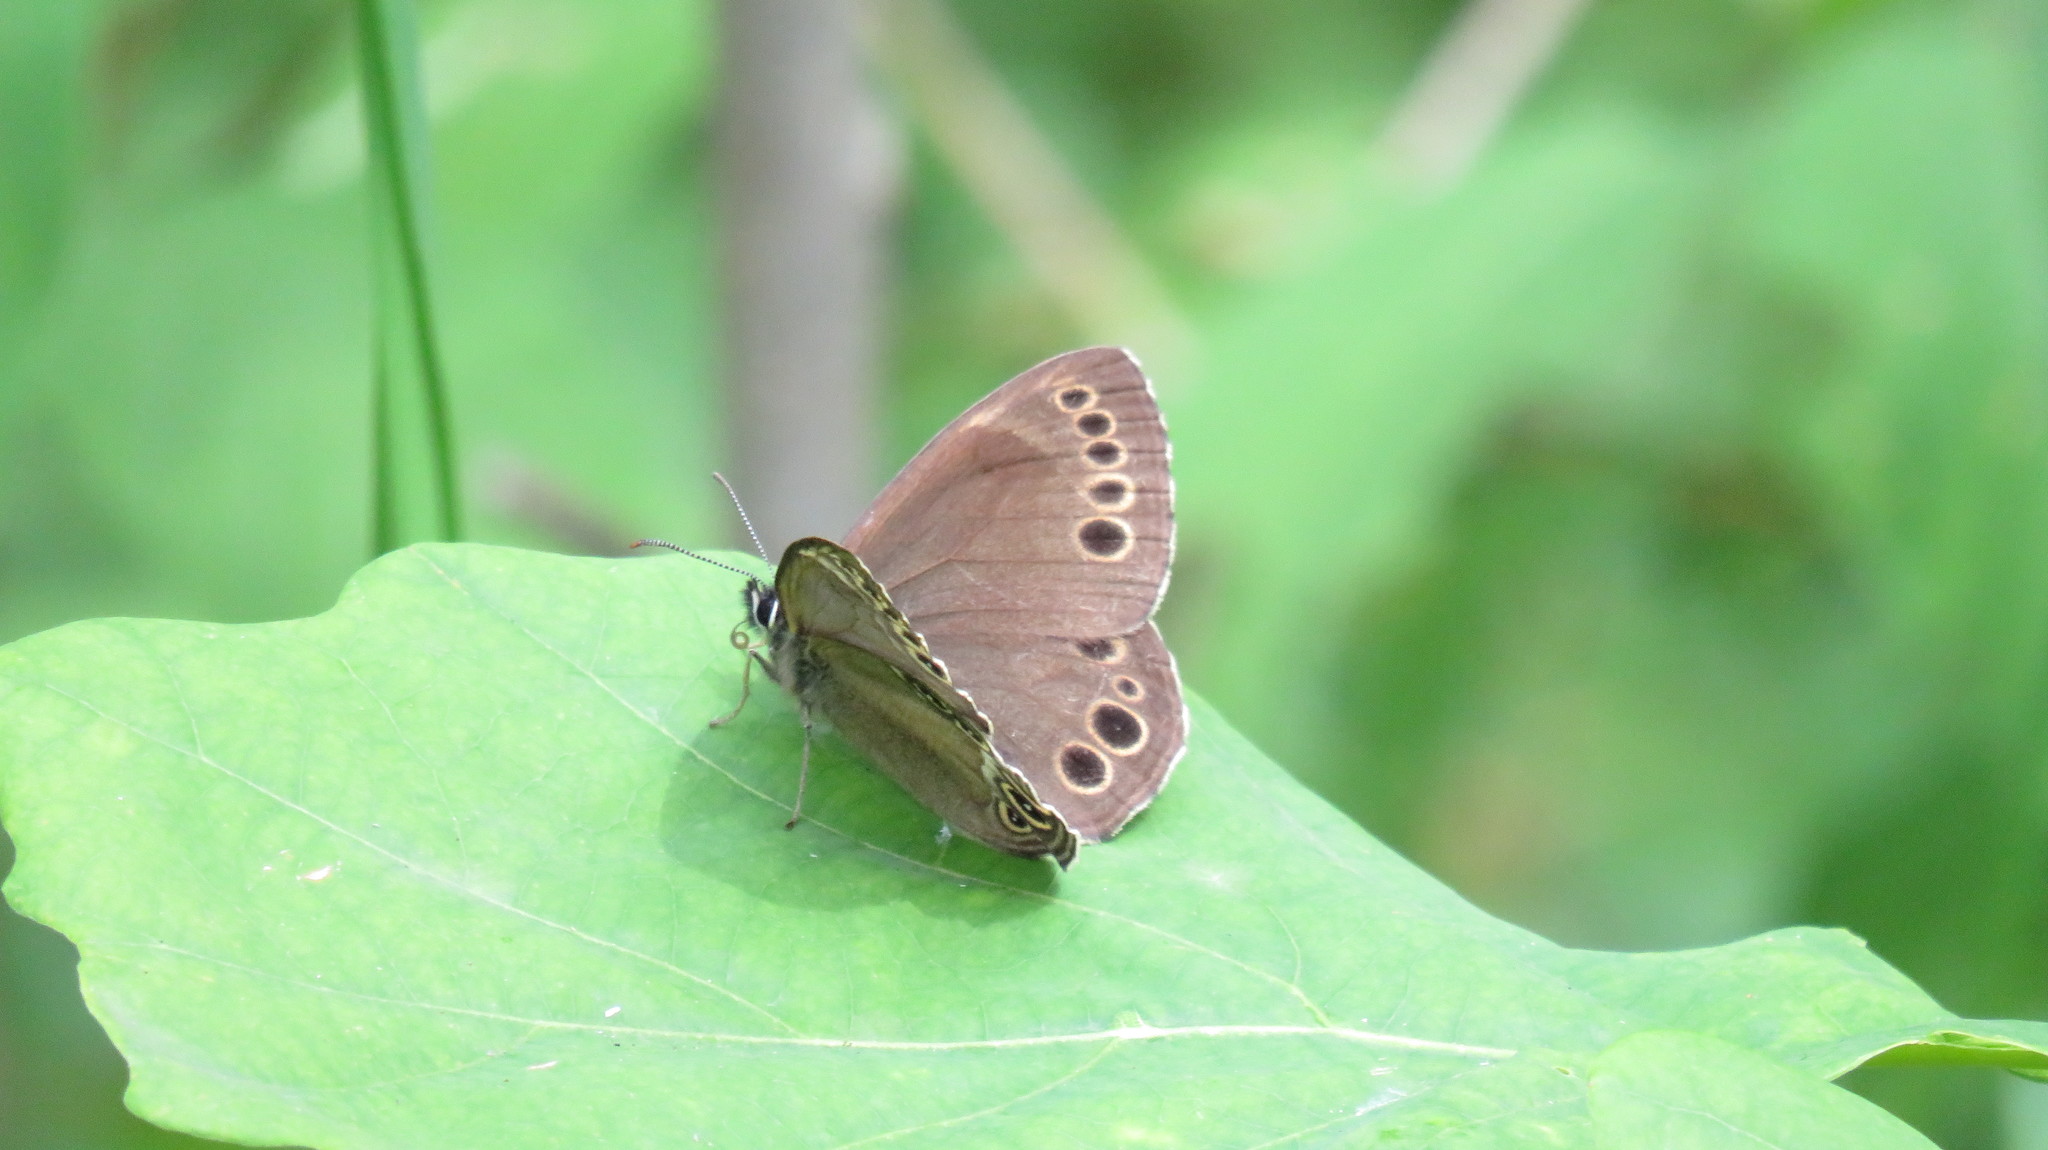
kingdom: Animalia
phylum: Arthropoda
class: Insecta
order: Lepidoptera
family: Nymphalidae
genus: Pararge
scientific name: Pararge Lopinga achine
